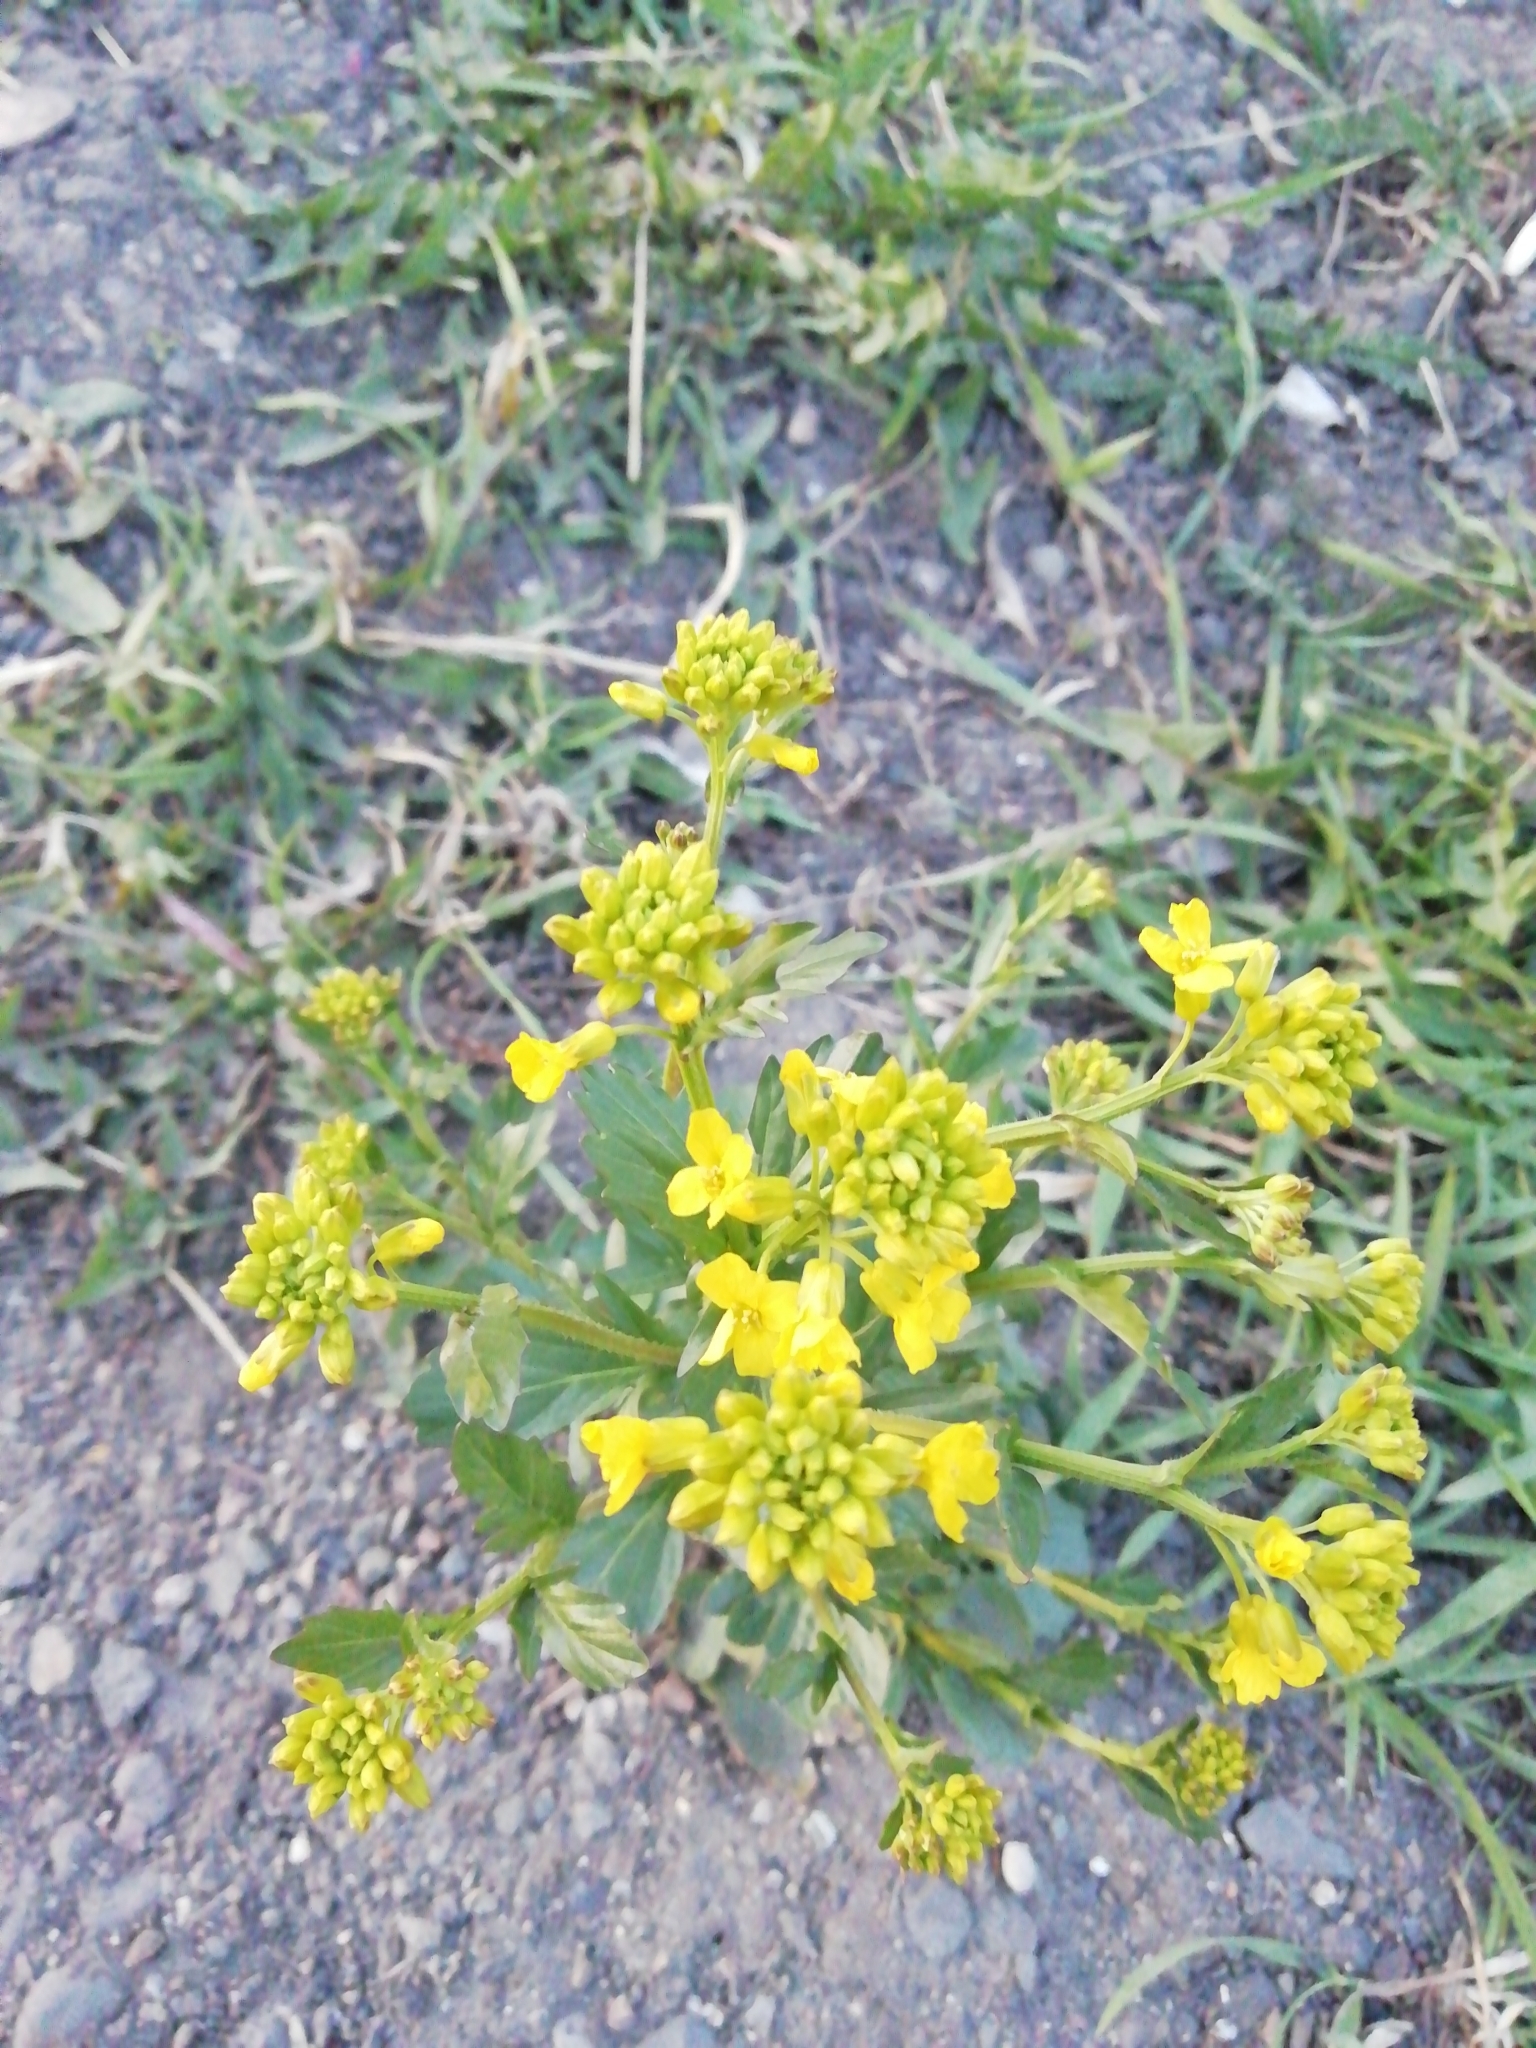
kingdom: Plantae
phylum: Tracheophyta
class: Magnoliopsida
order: Brassicales
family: Brassicaceae
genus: Barbarea
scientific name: Barbarea vulgaris
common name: Cressy-greens
